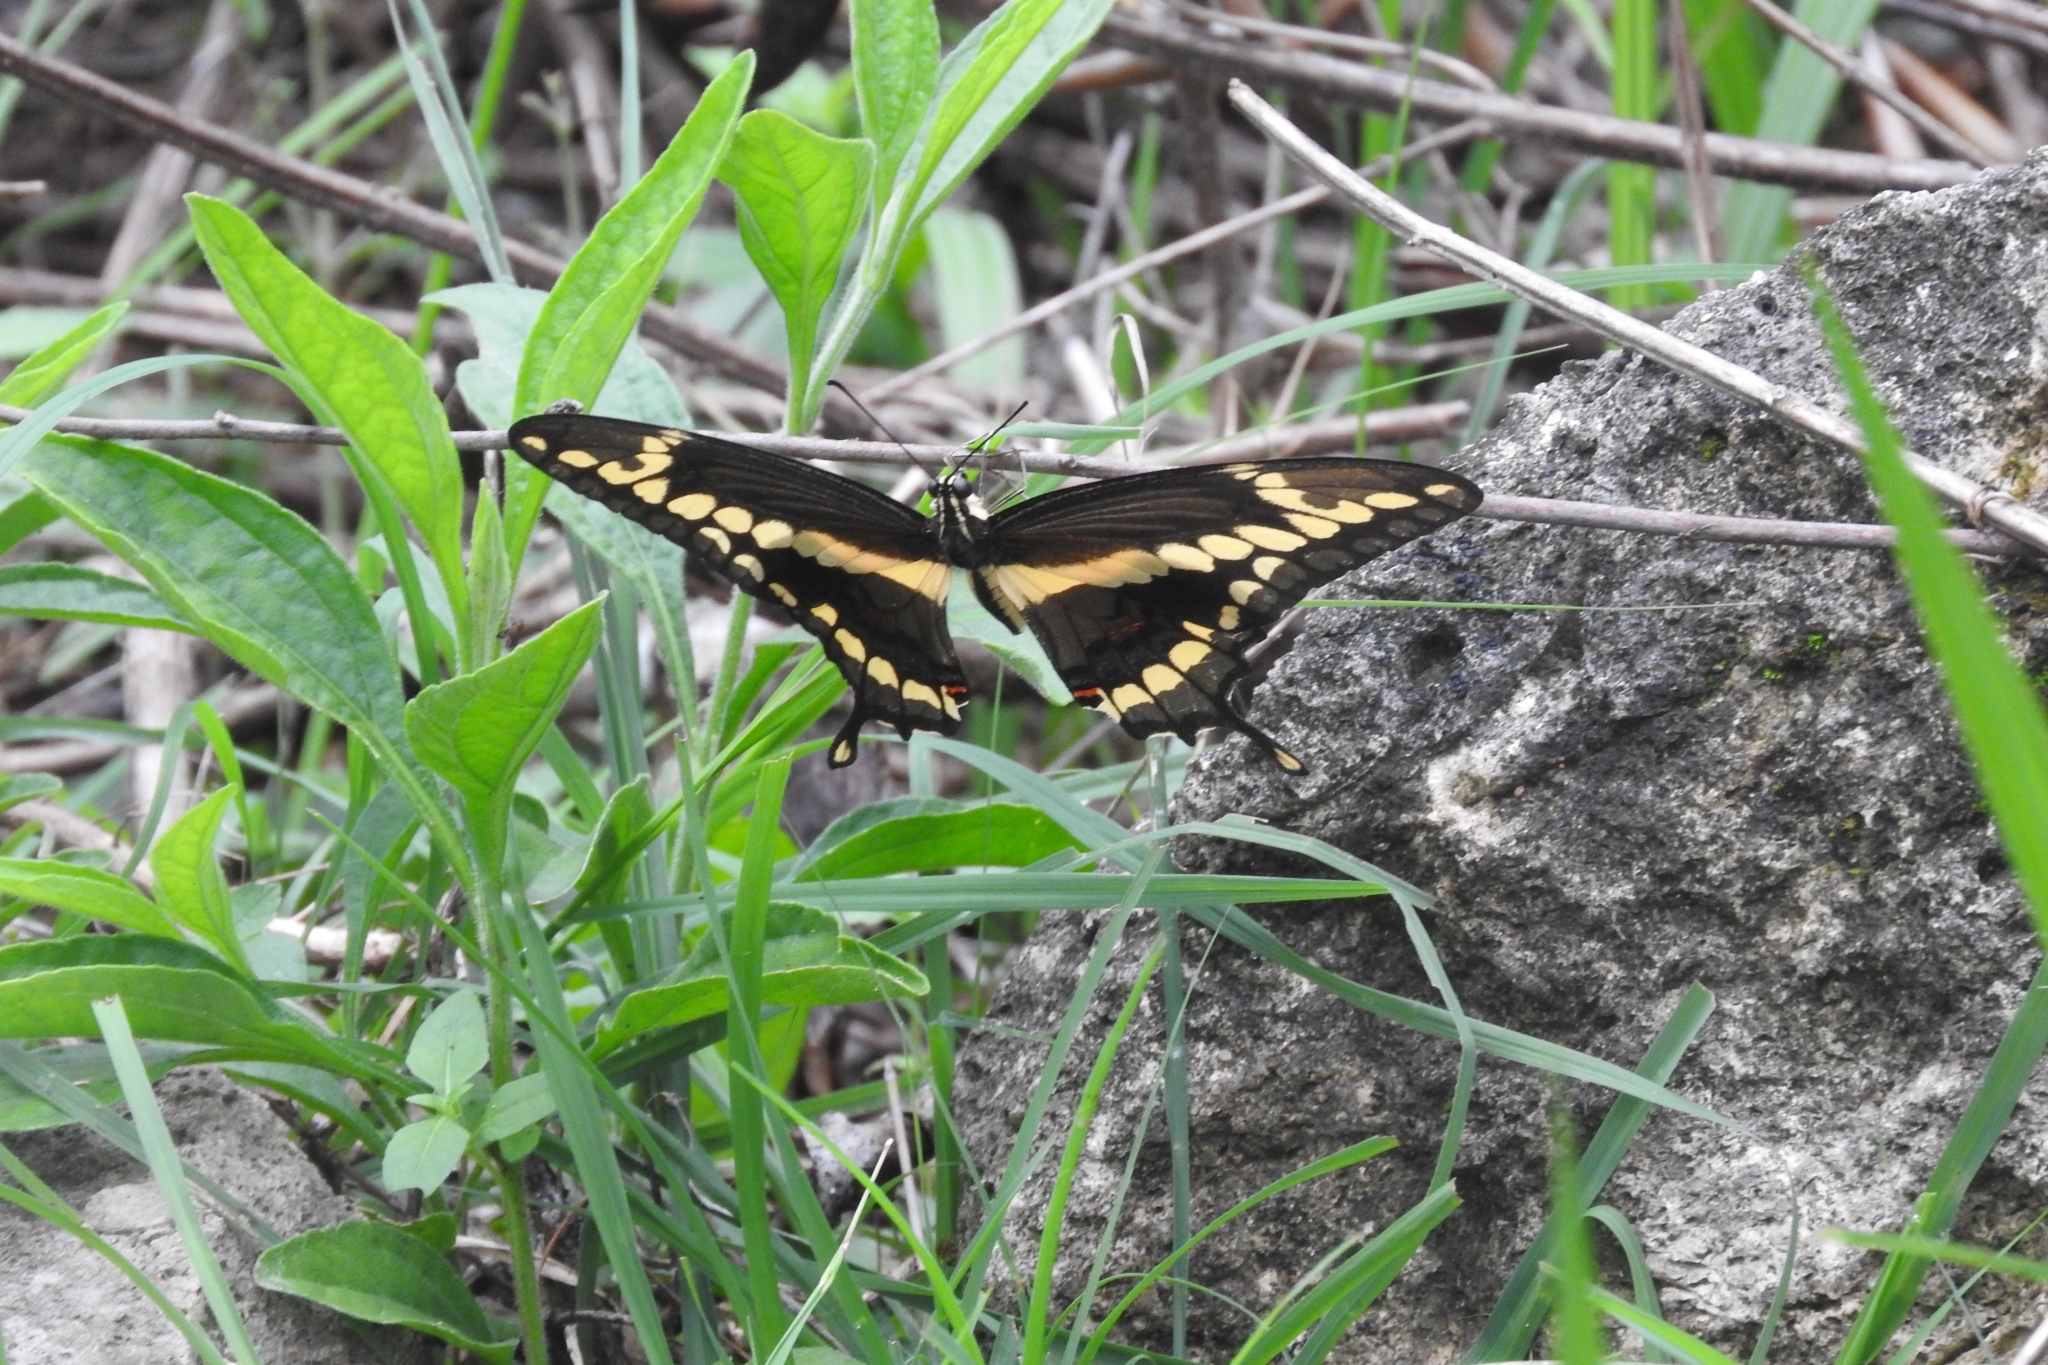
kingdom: Animalia
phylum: Arthropoda
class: Insecta
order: Lepidoptera
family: Papilionidae
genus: Papilio
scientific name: Papilio rumiko
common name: Western giant swallowtail
